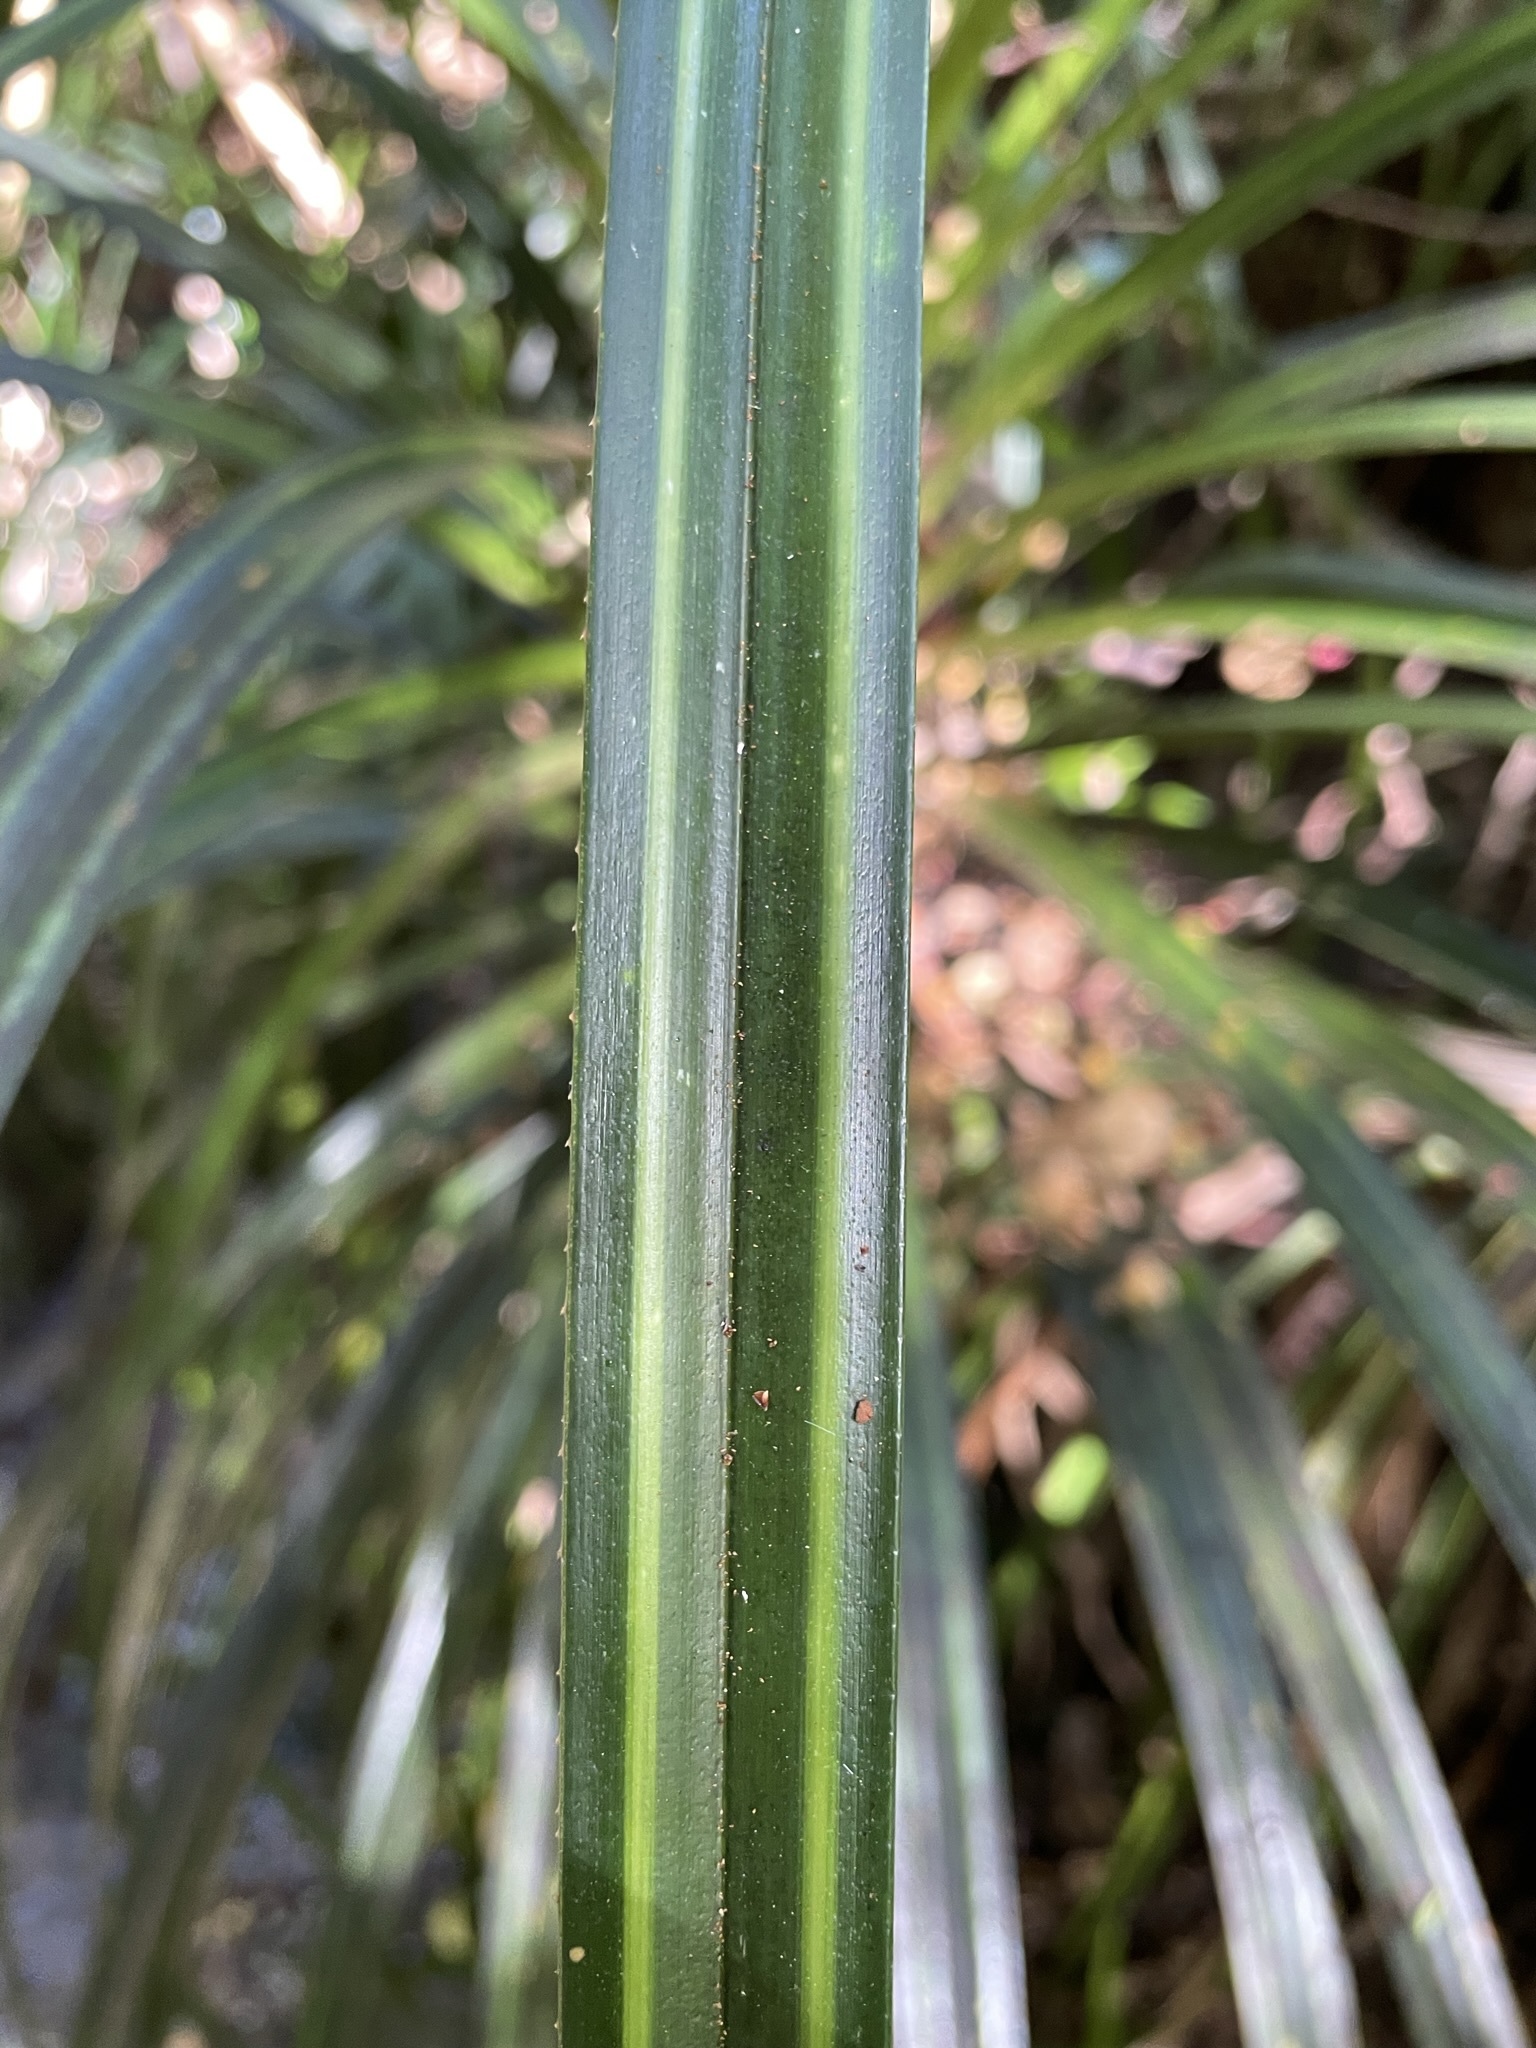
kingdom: Plantae
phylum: Tracheophyta
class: Liliopsida
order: Pandanales
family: Pandanaceae
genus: Freycinetia
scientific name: Freycinetia banksii
